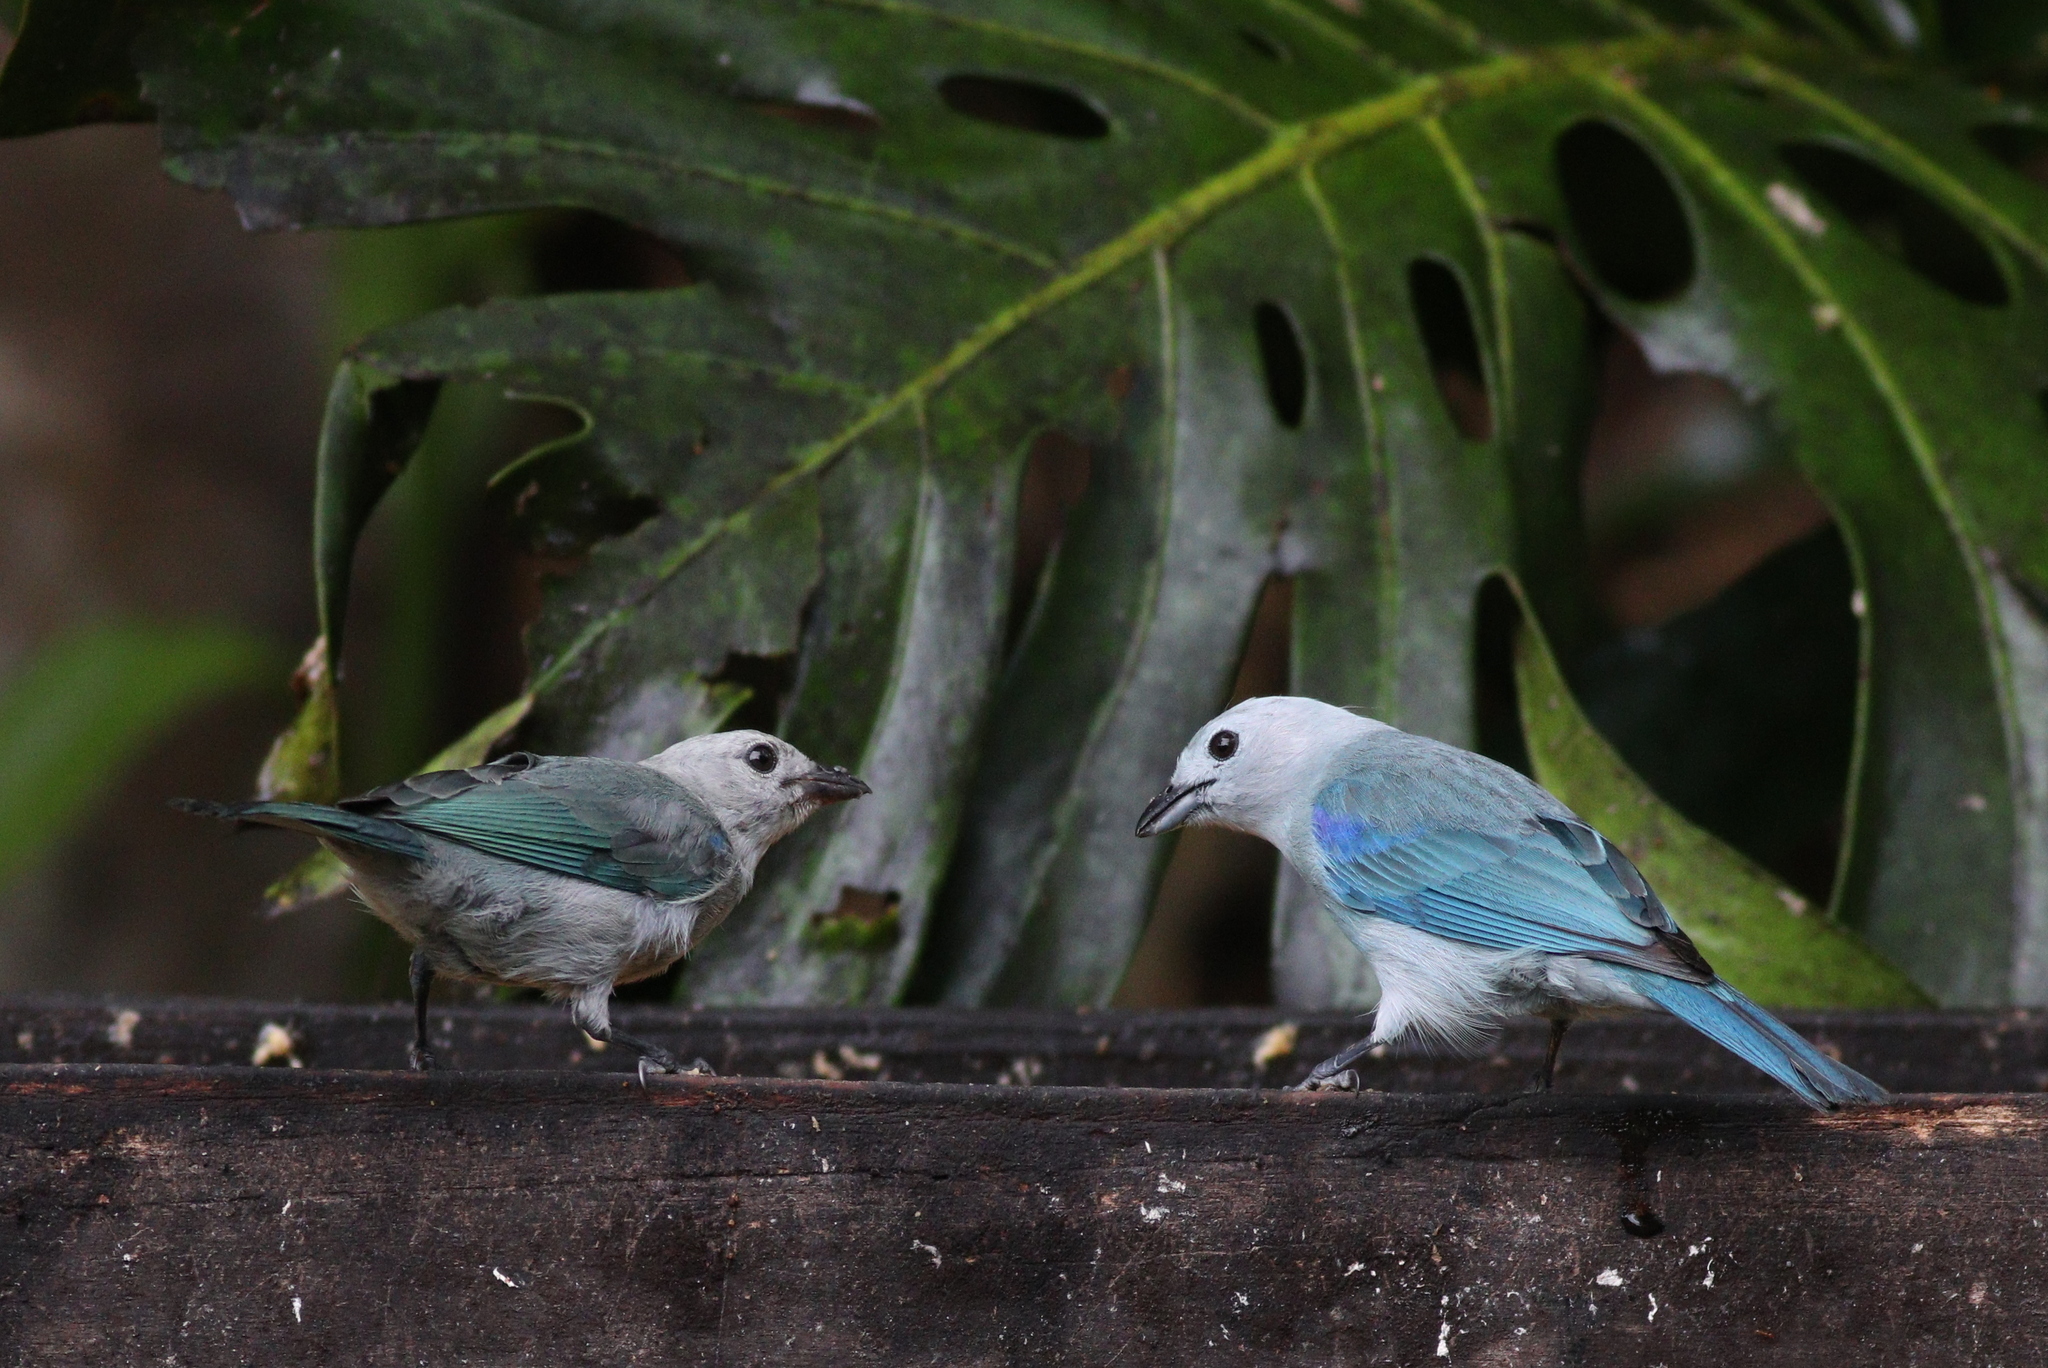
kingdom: Animalia
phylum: Chordata
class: Aves
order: Passeriformes
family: Thraupidae
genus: Thraupis
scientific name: Thraupis episcopus
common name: Blue-grey tanager
